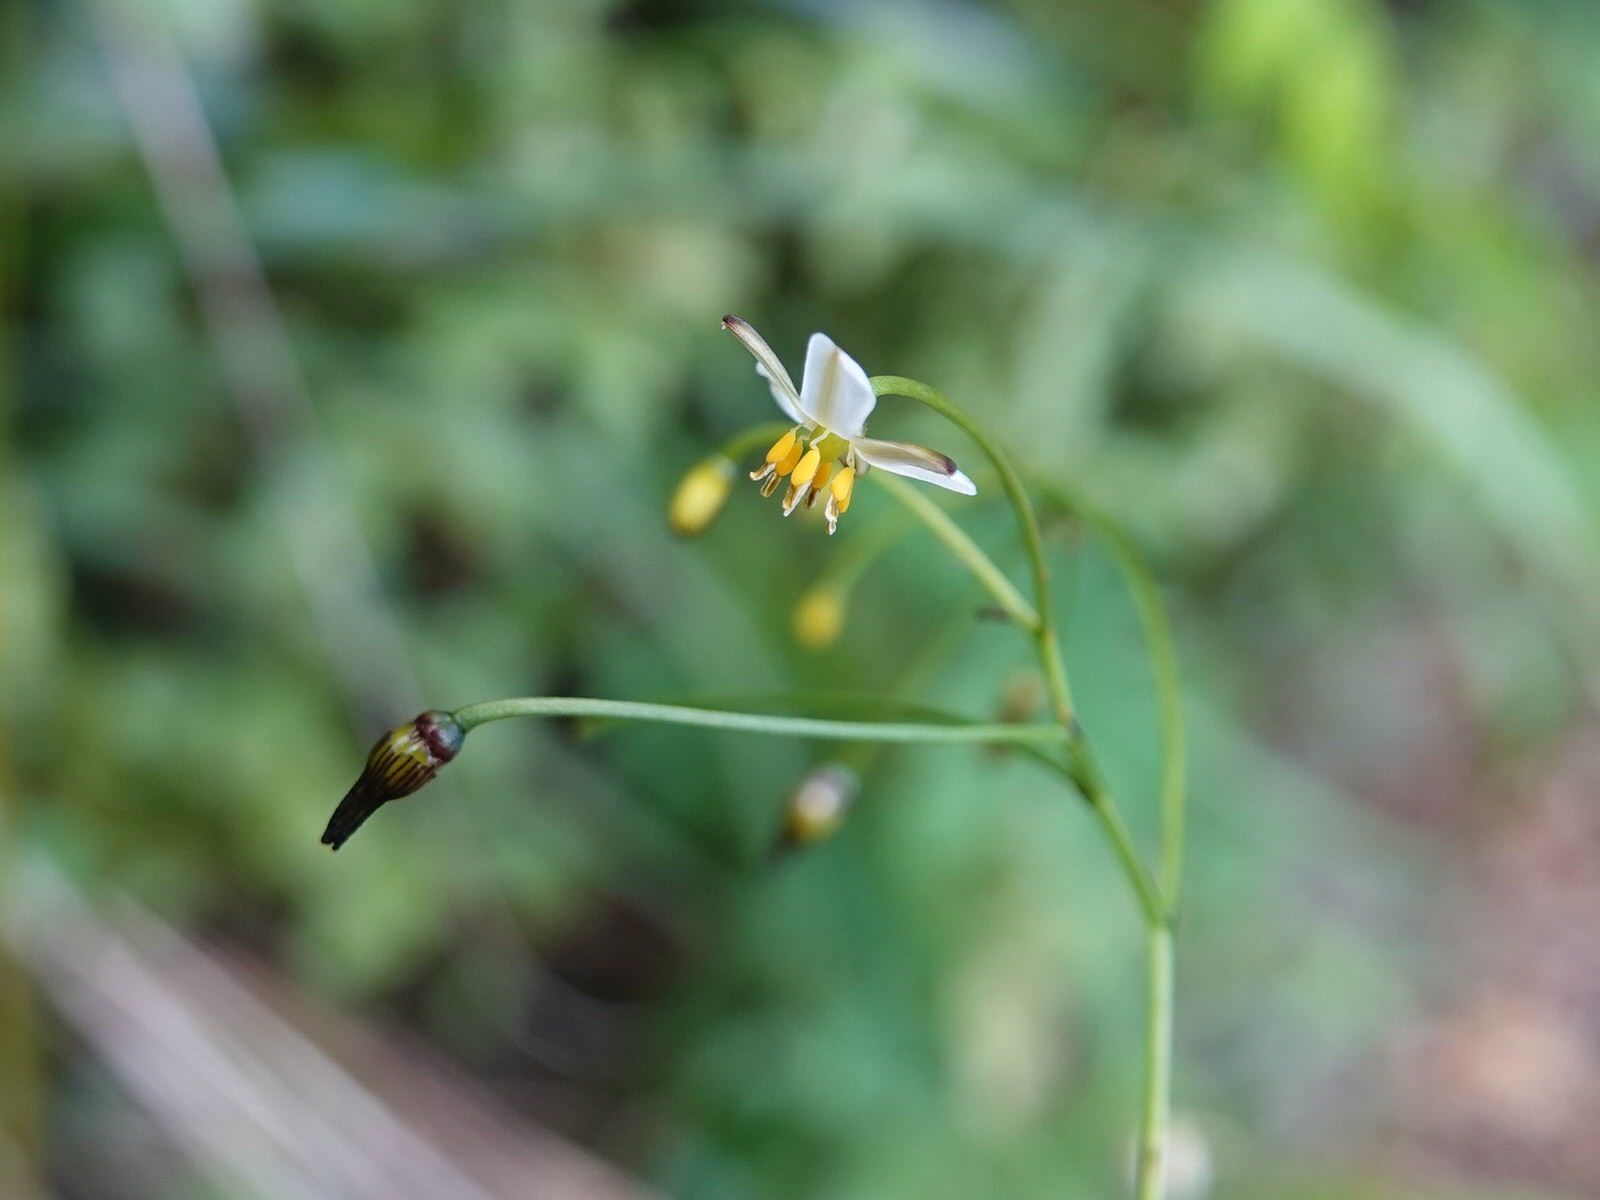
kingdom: Plantae
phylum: Tracheophyta
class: Liliopsida
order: Asparagales
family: Asphodelaceae
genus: Dianella
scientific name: Dianella nigra
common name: New zealand-blueberry
